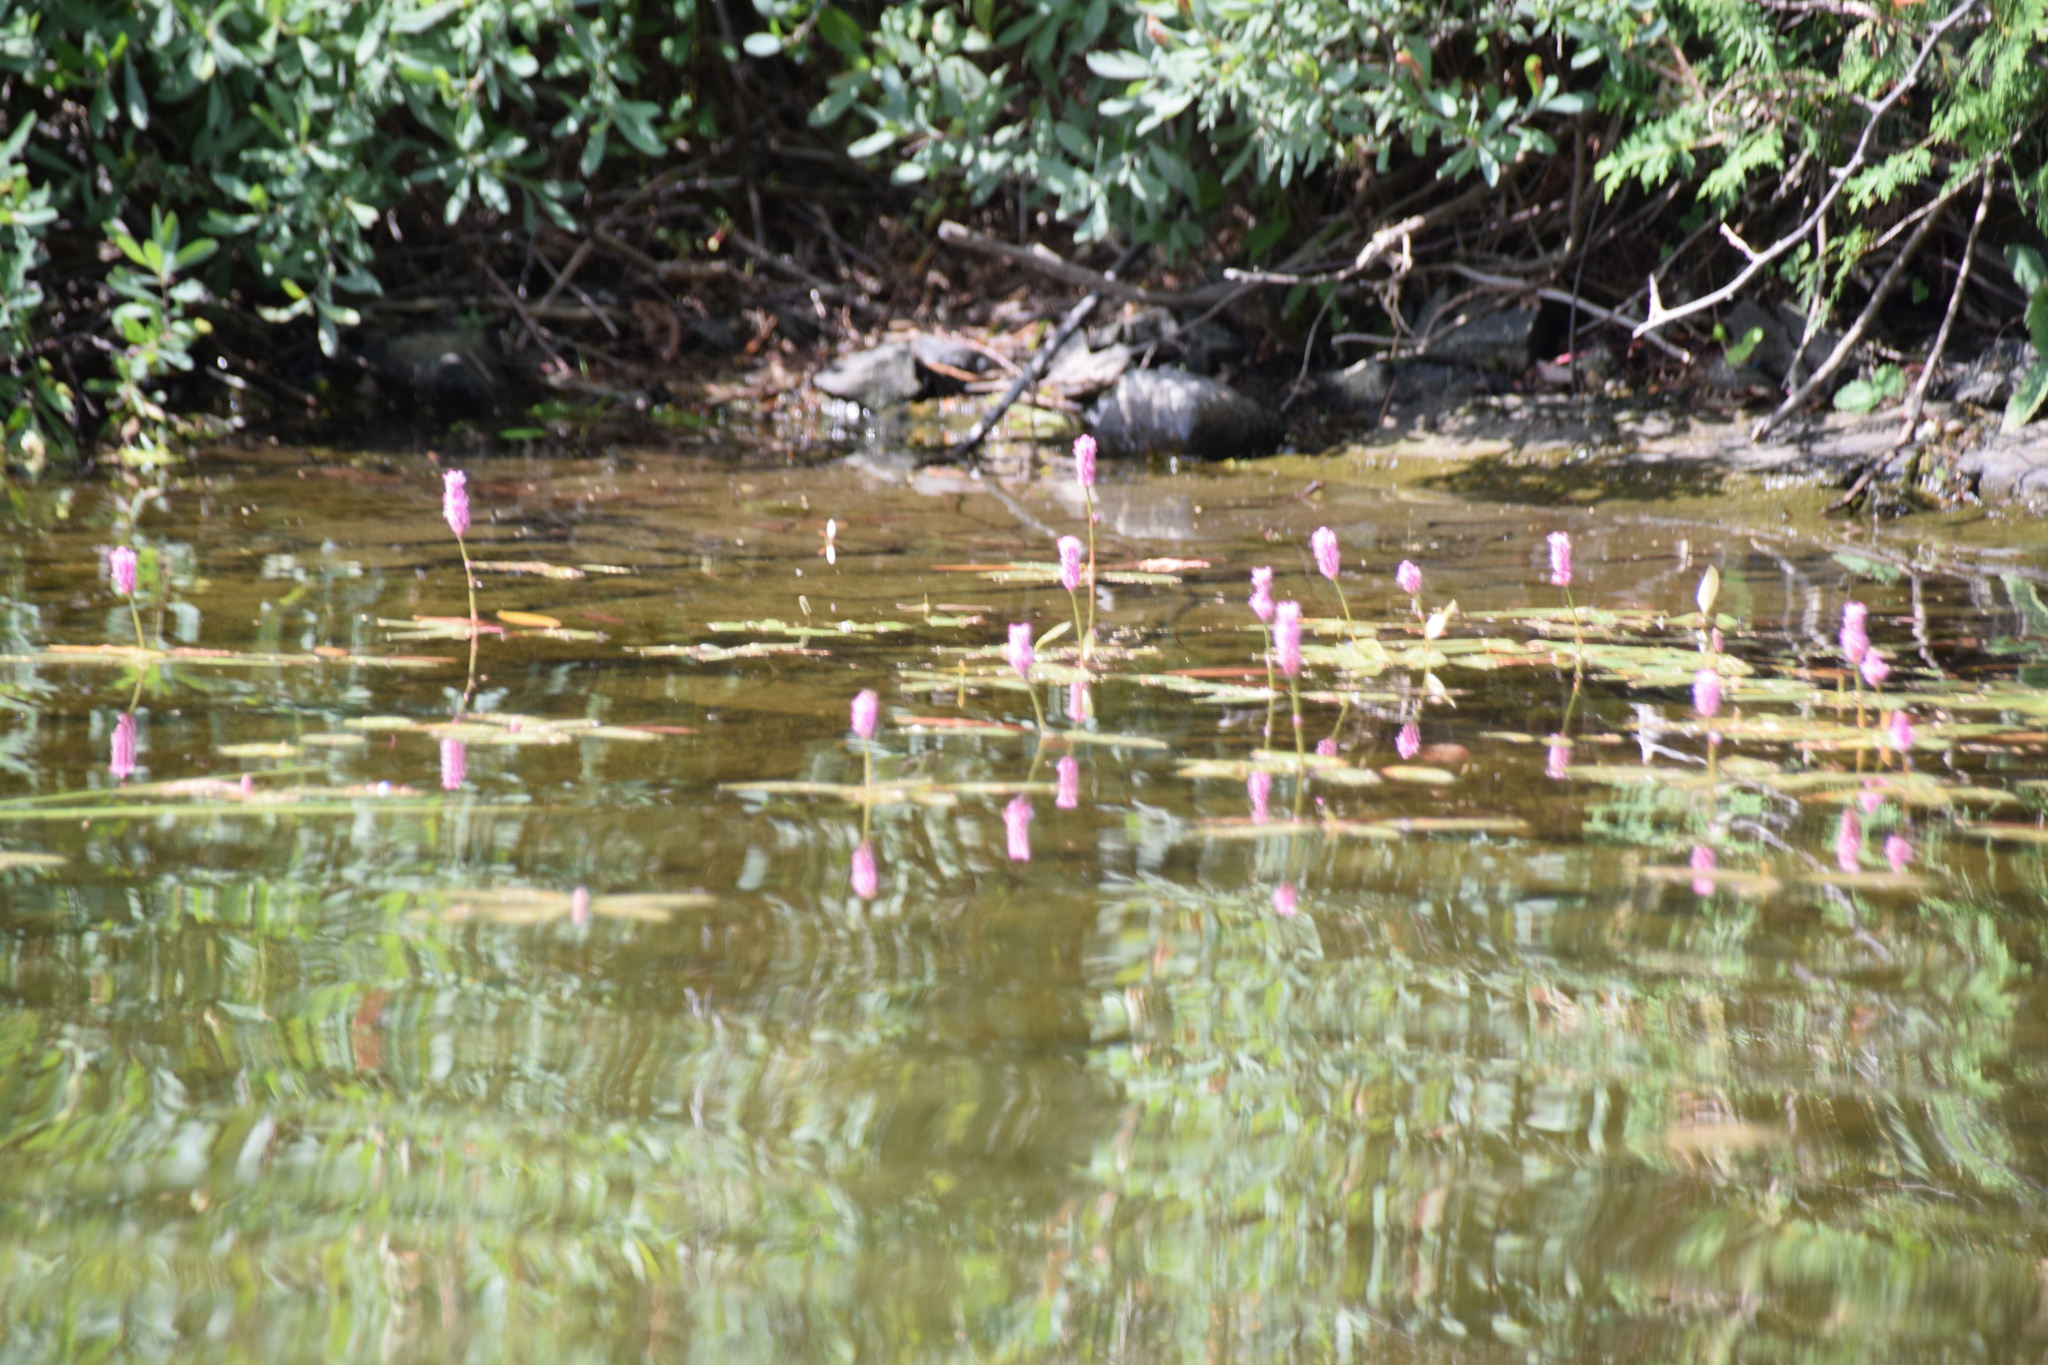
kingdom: Plantae
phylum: Tracheophyta
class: Magnoliopsida
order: Caryophyllales
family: Polygonaceae
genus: Persicaria
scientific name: Persicaria amphibia
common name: Amphibious bistort
